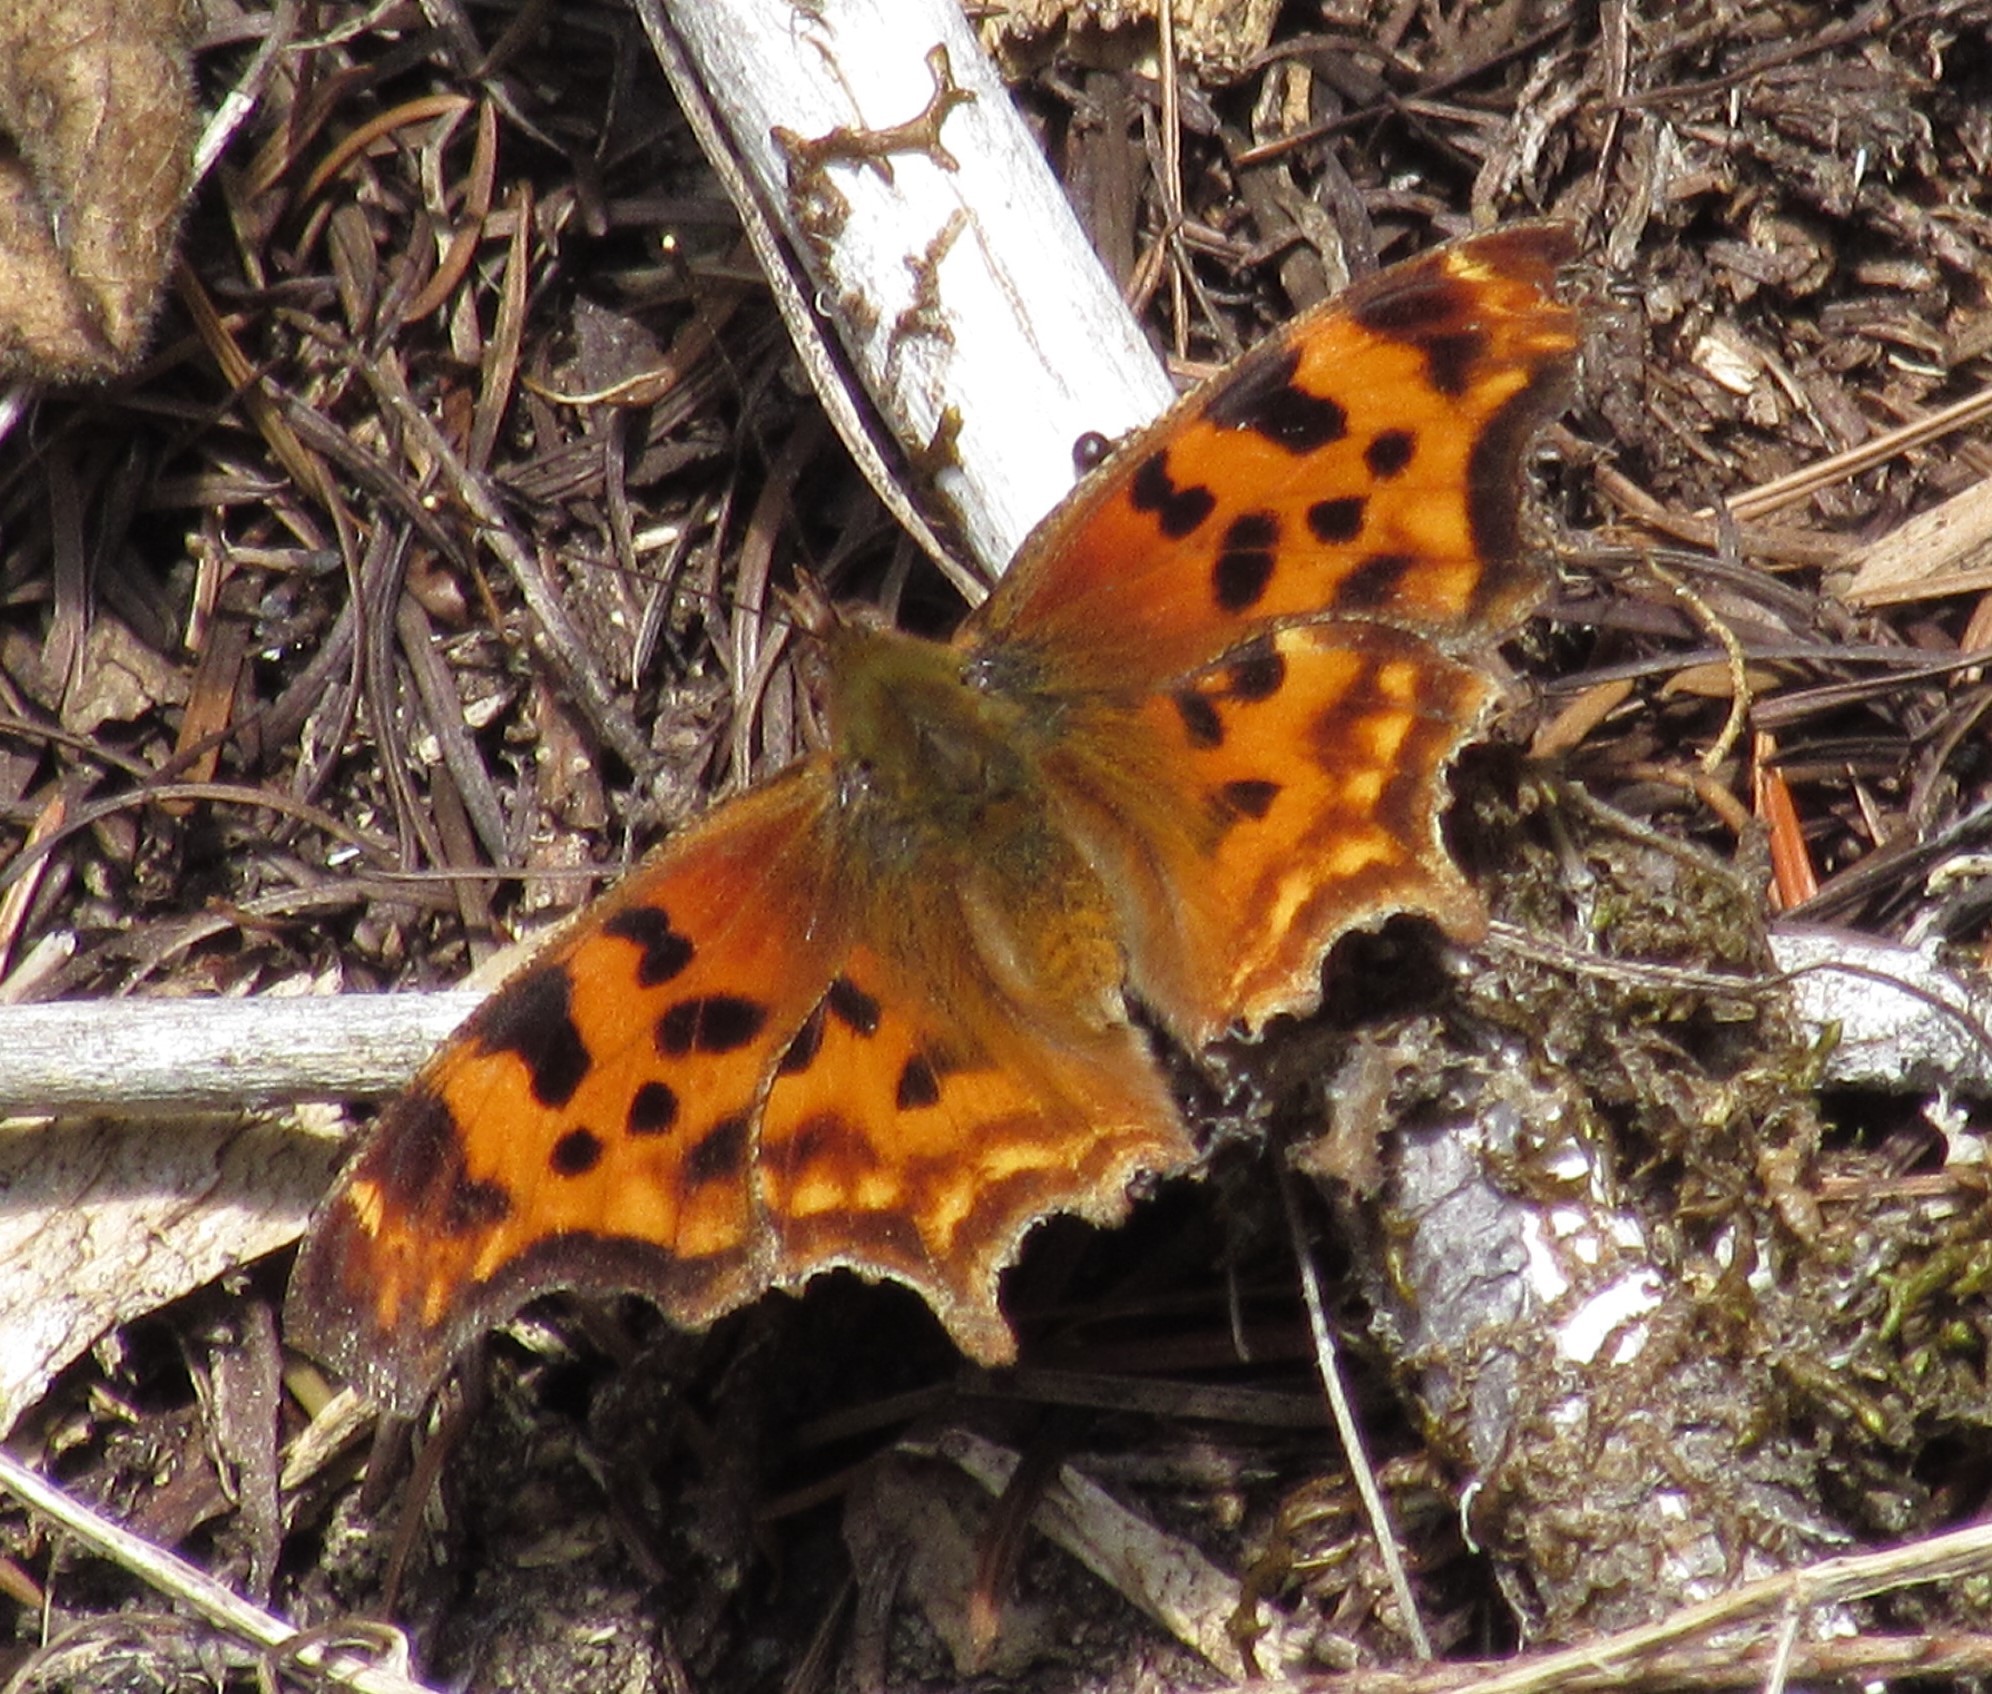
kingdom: Animalia
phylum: Arthropoda
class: Insecta
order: Lepidoptera
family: Nymphalidae
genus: Polygonia
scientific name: Polygonia satyrus
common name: Satyr angle wing
